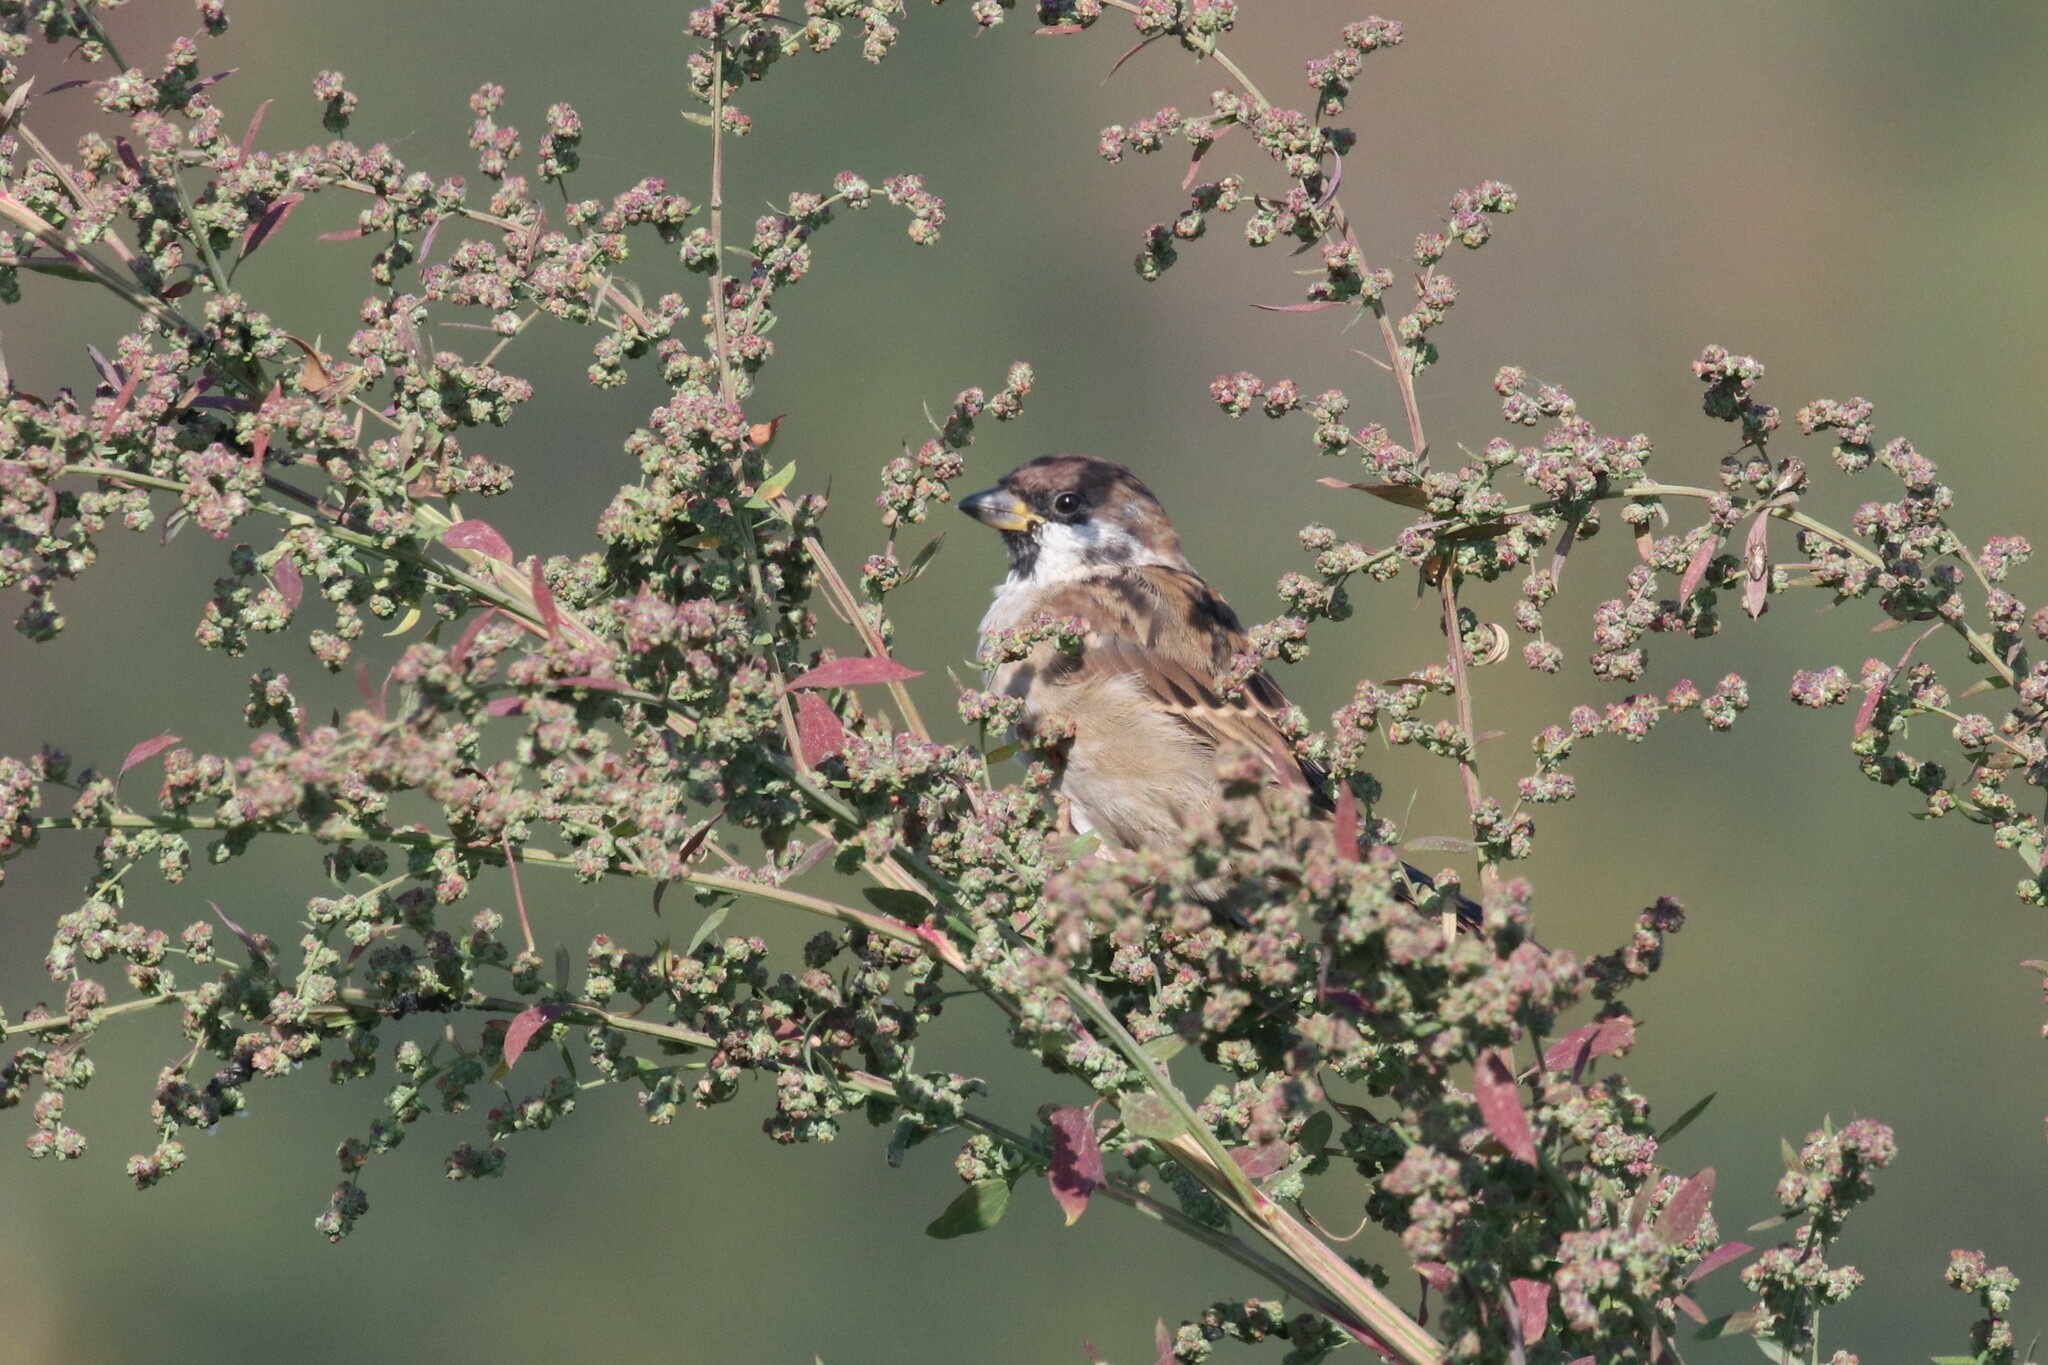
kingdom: Animalia
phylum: Chordata
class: Aves
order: Passeriformes
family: Passeridae
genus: Passer
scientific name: Passer montanus
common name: Eurasian tree sparrow
